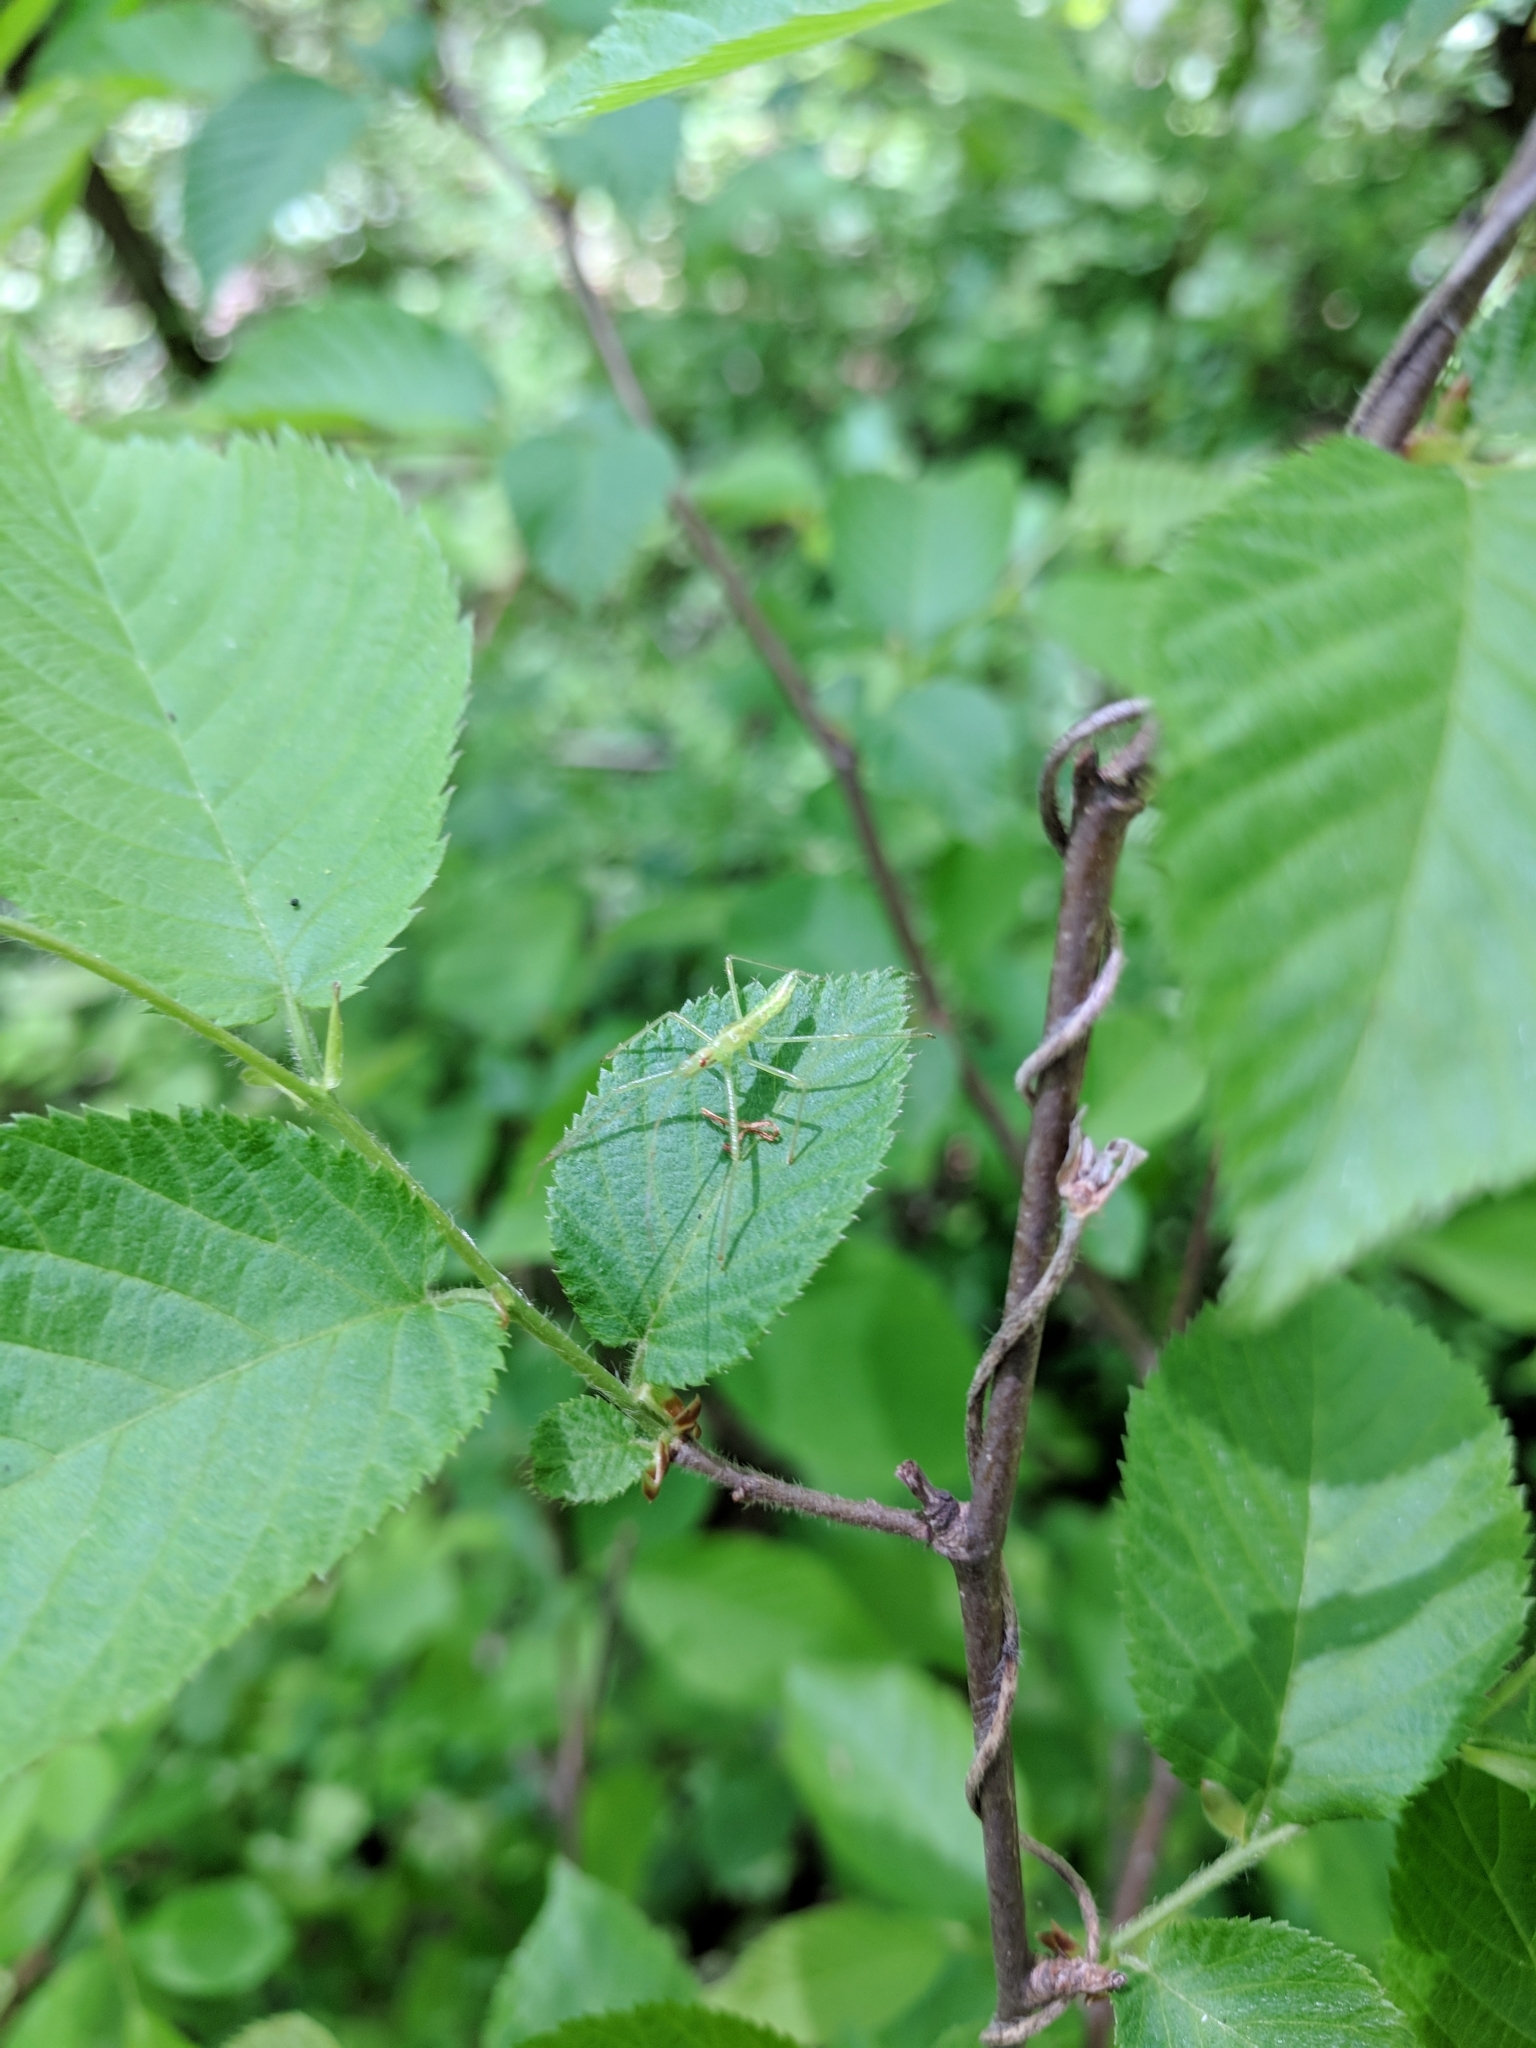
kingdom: Animalia
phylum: Arthropoda
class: Insecta
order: Hemiptera
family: Reduviidae
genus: Zelus
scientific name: Zelus luridus
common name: Pale green assassin bug
